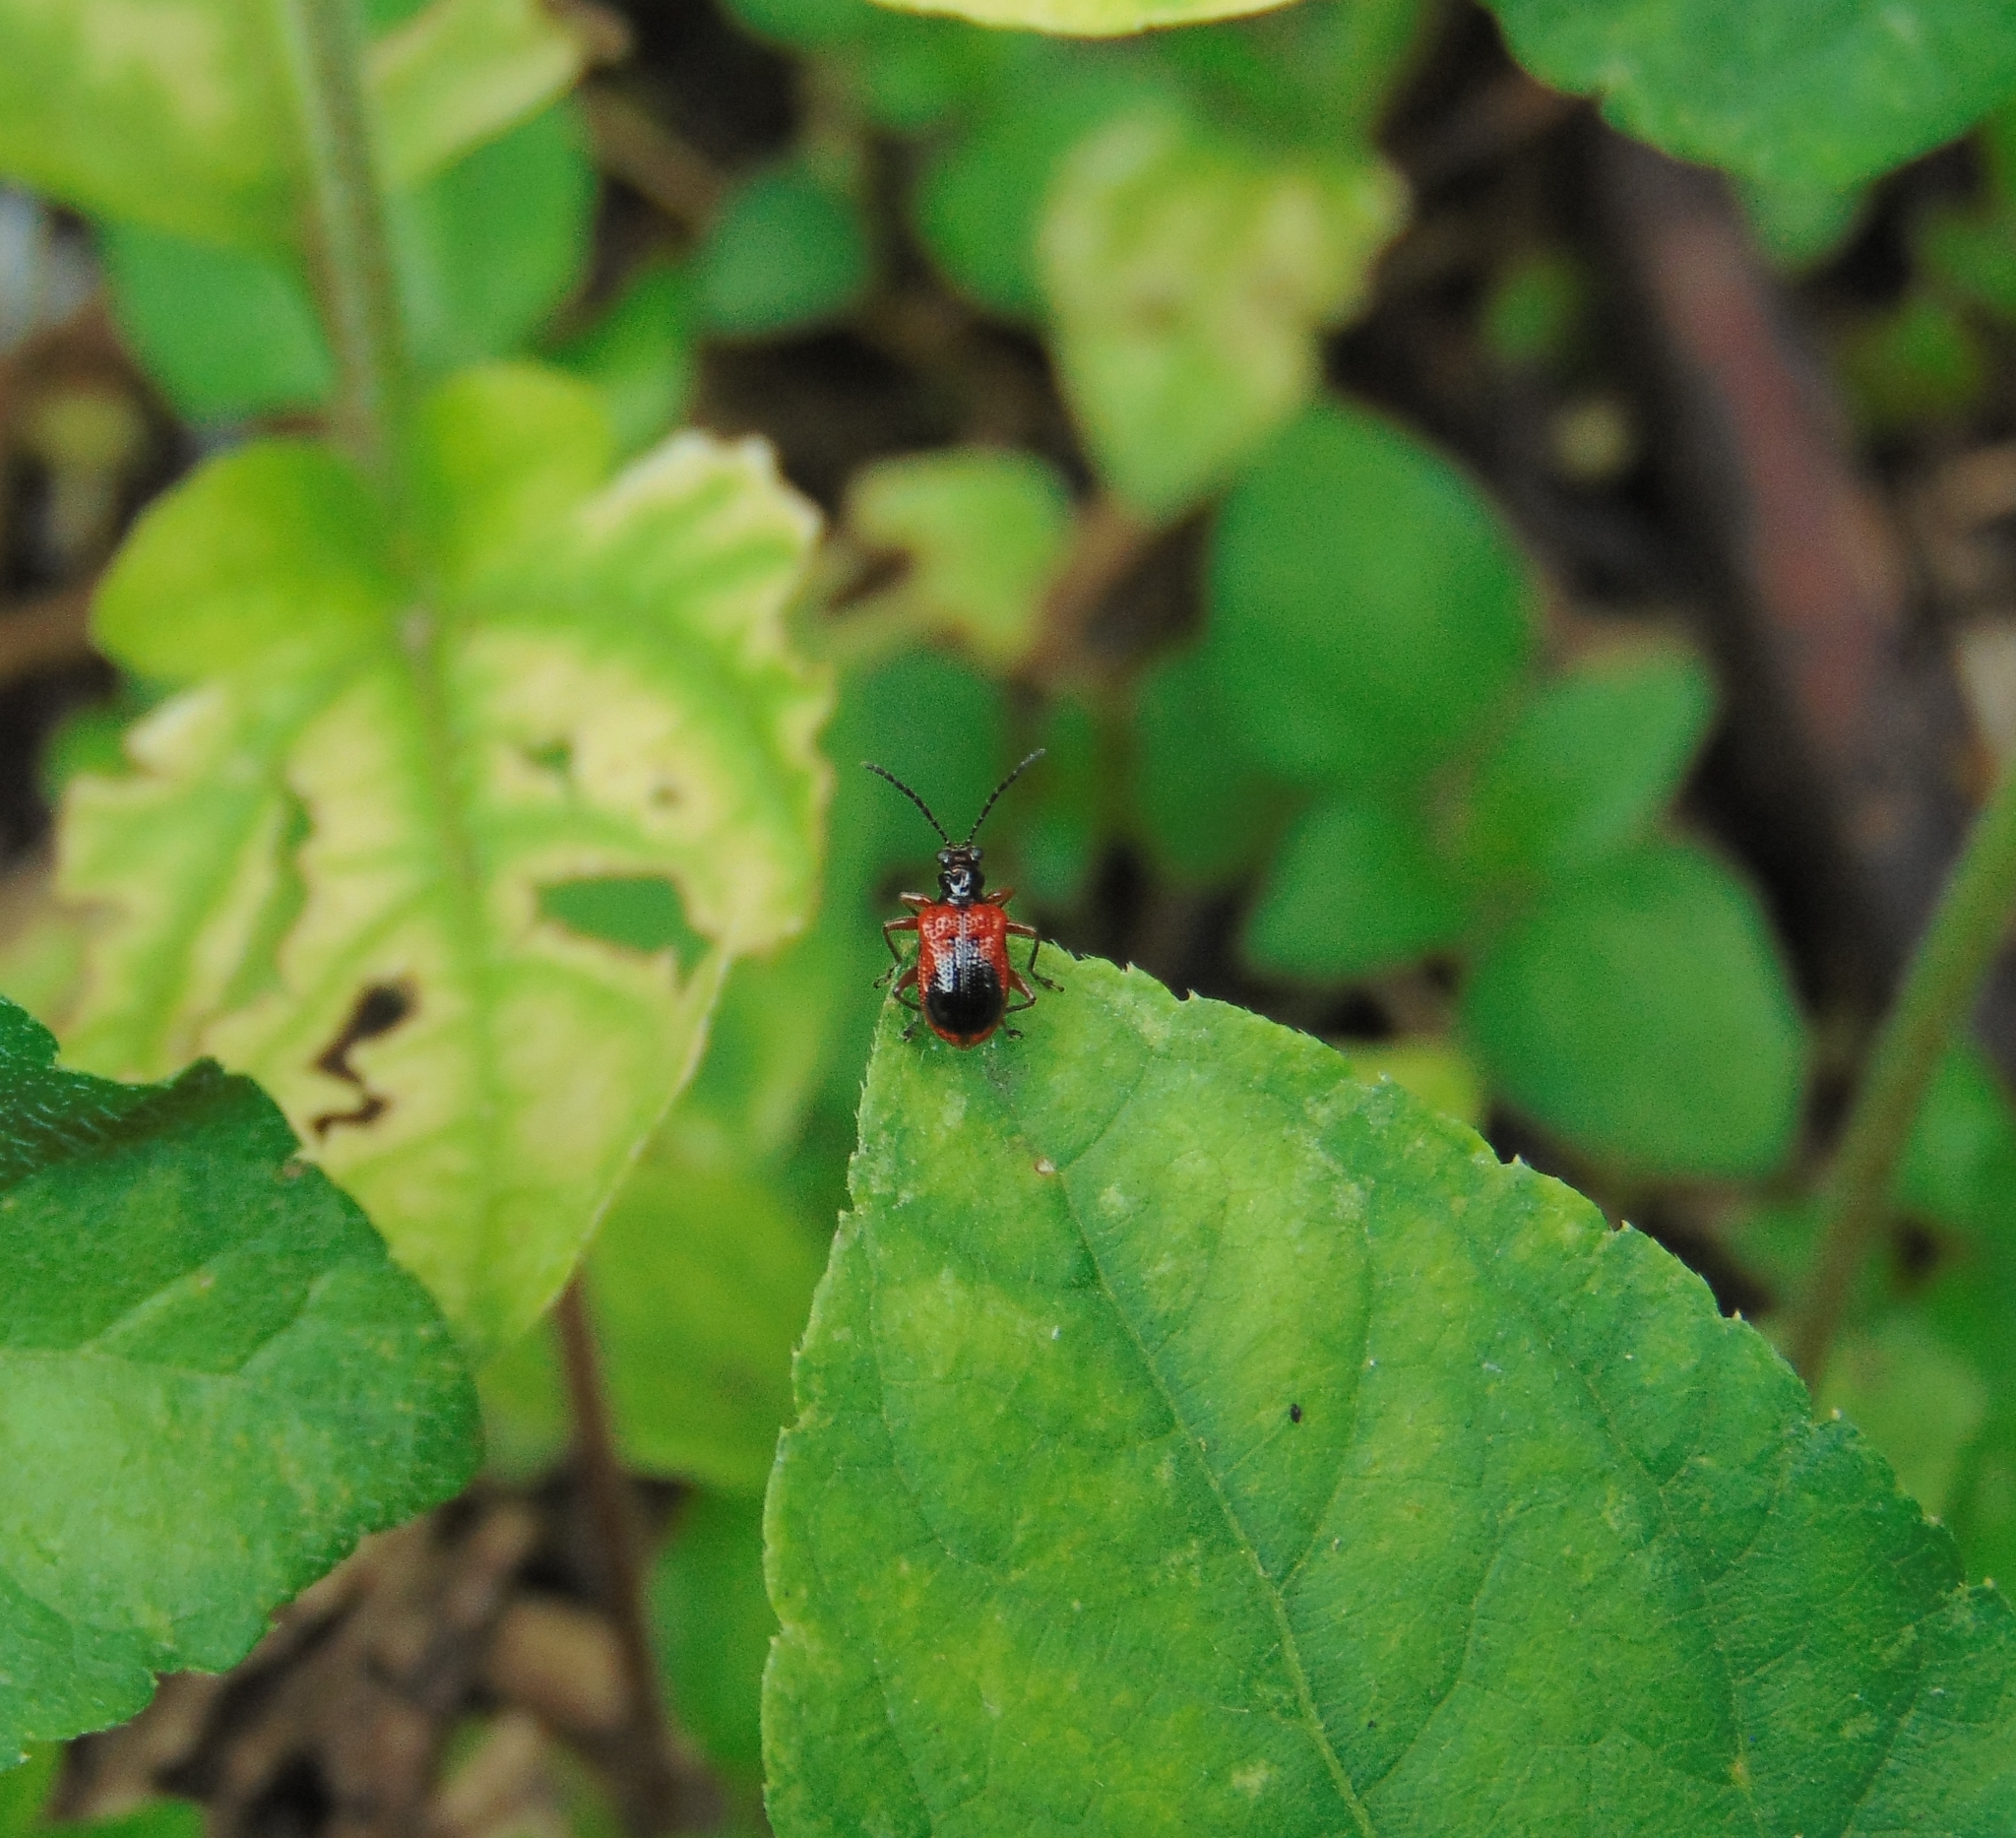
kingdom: Animalia
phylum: Arthropoda
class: Insecta
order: Coleoptera
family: Chrysomelidae
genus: Neolema
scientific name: Neolema dorsalis
